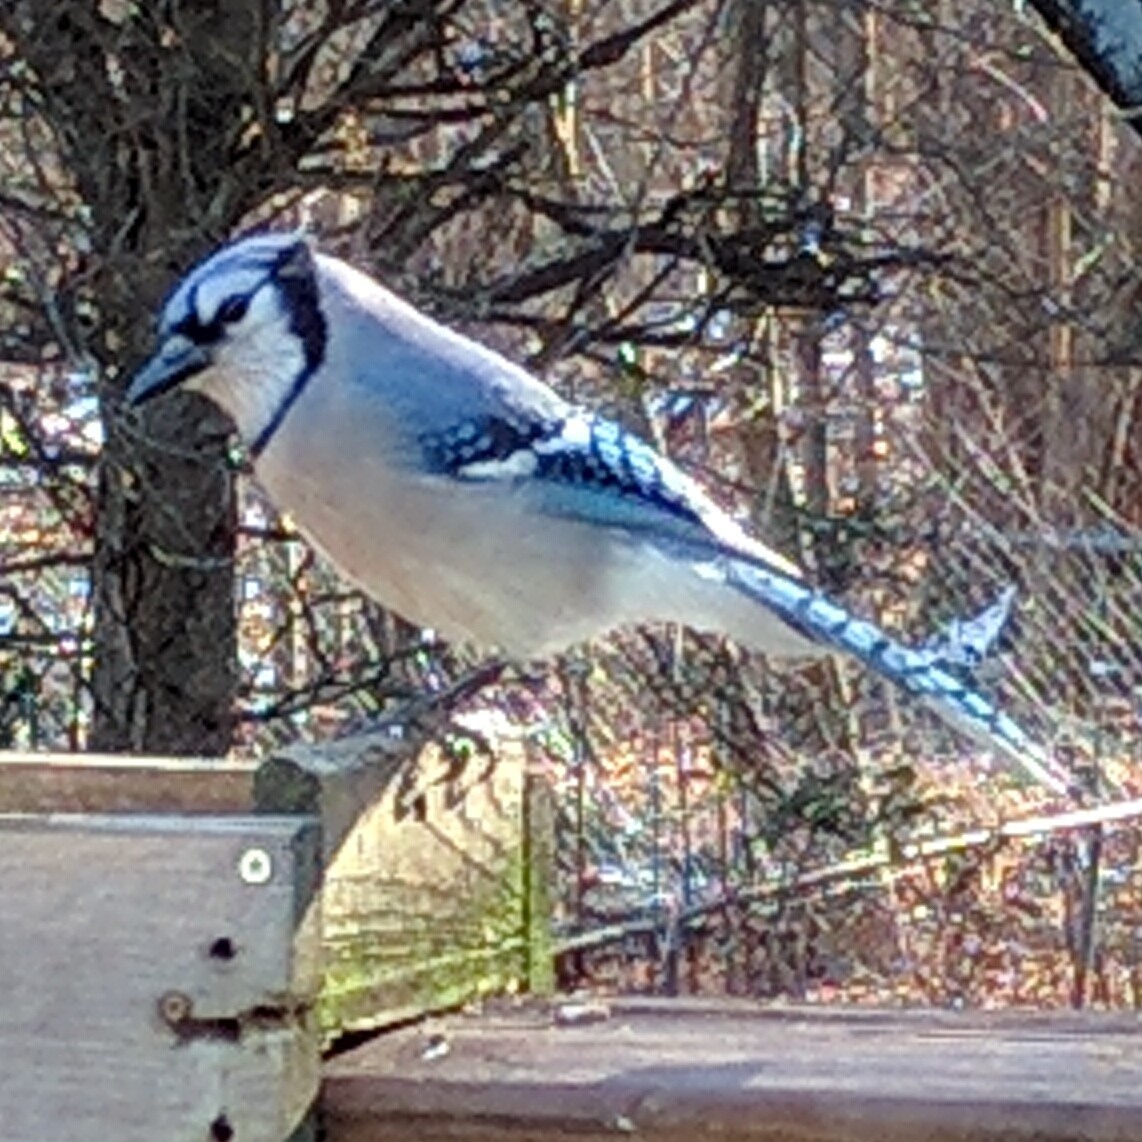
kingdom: Animalia
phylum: Chordata
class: Aves
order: Passeriformes
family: Corvidae
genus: Cyanocitta
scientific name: Cyanocitta cristata
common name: Blue jay
